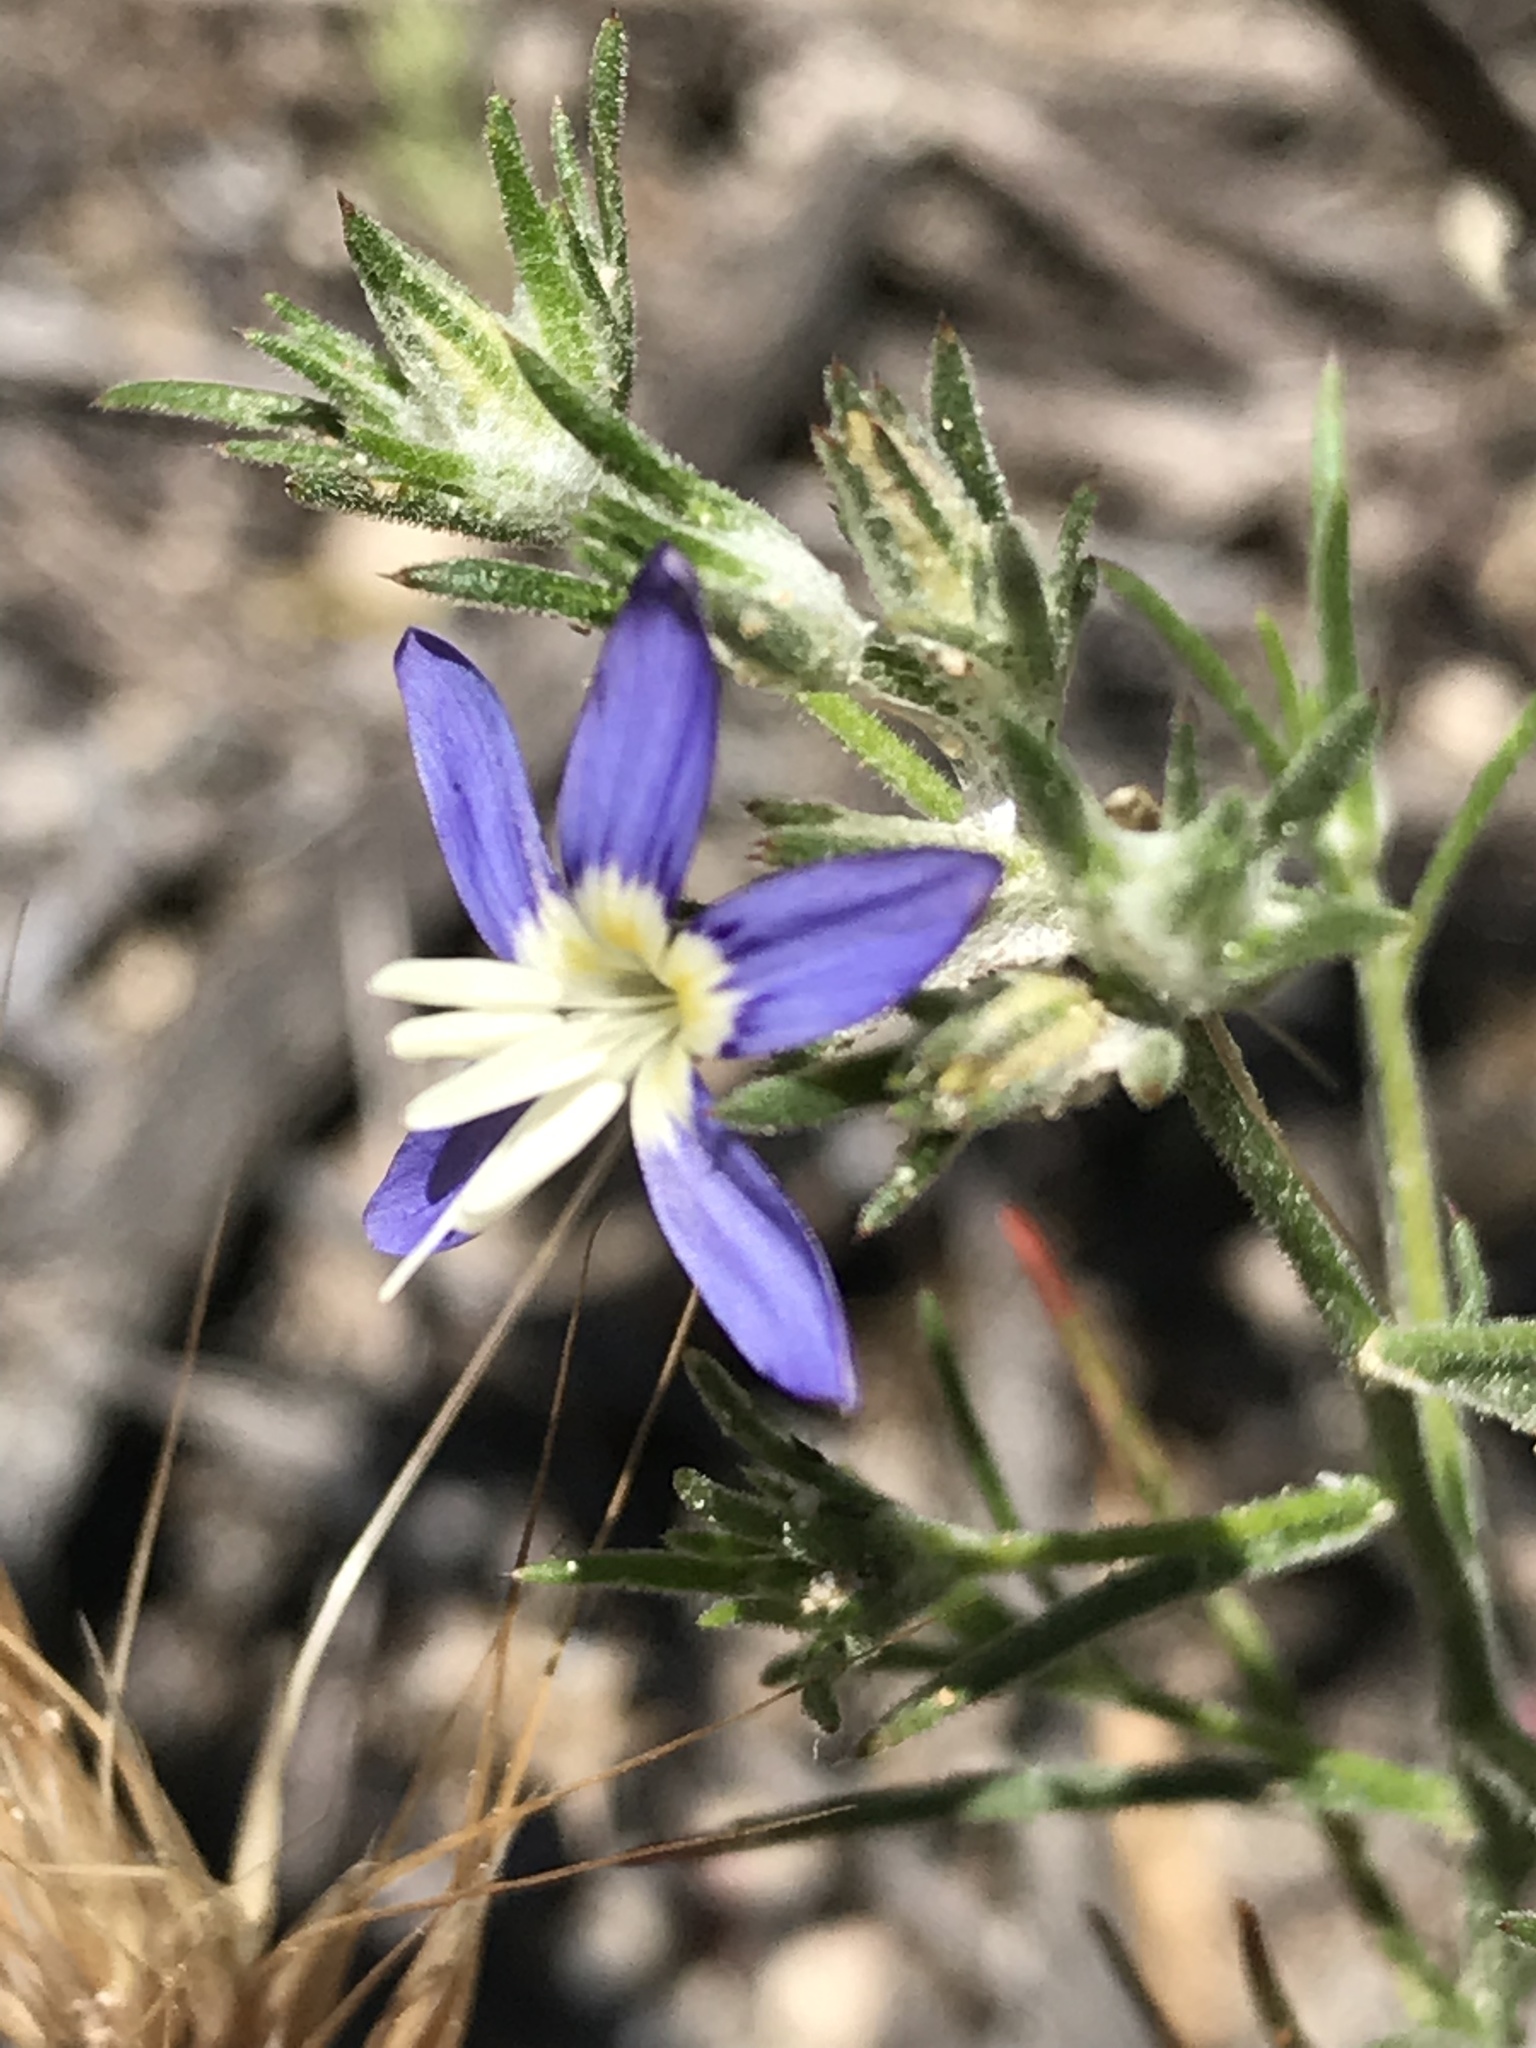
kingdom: Plantae
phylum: Tracheophyta
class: Magnoliopsida
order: Ericales
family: Polemoniaceae
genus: Eriastrum
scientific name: Eriastrum sapphirinum
